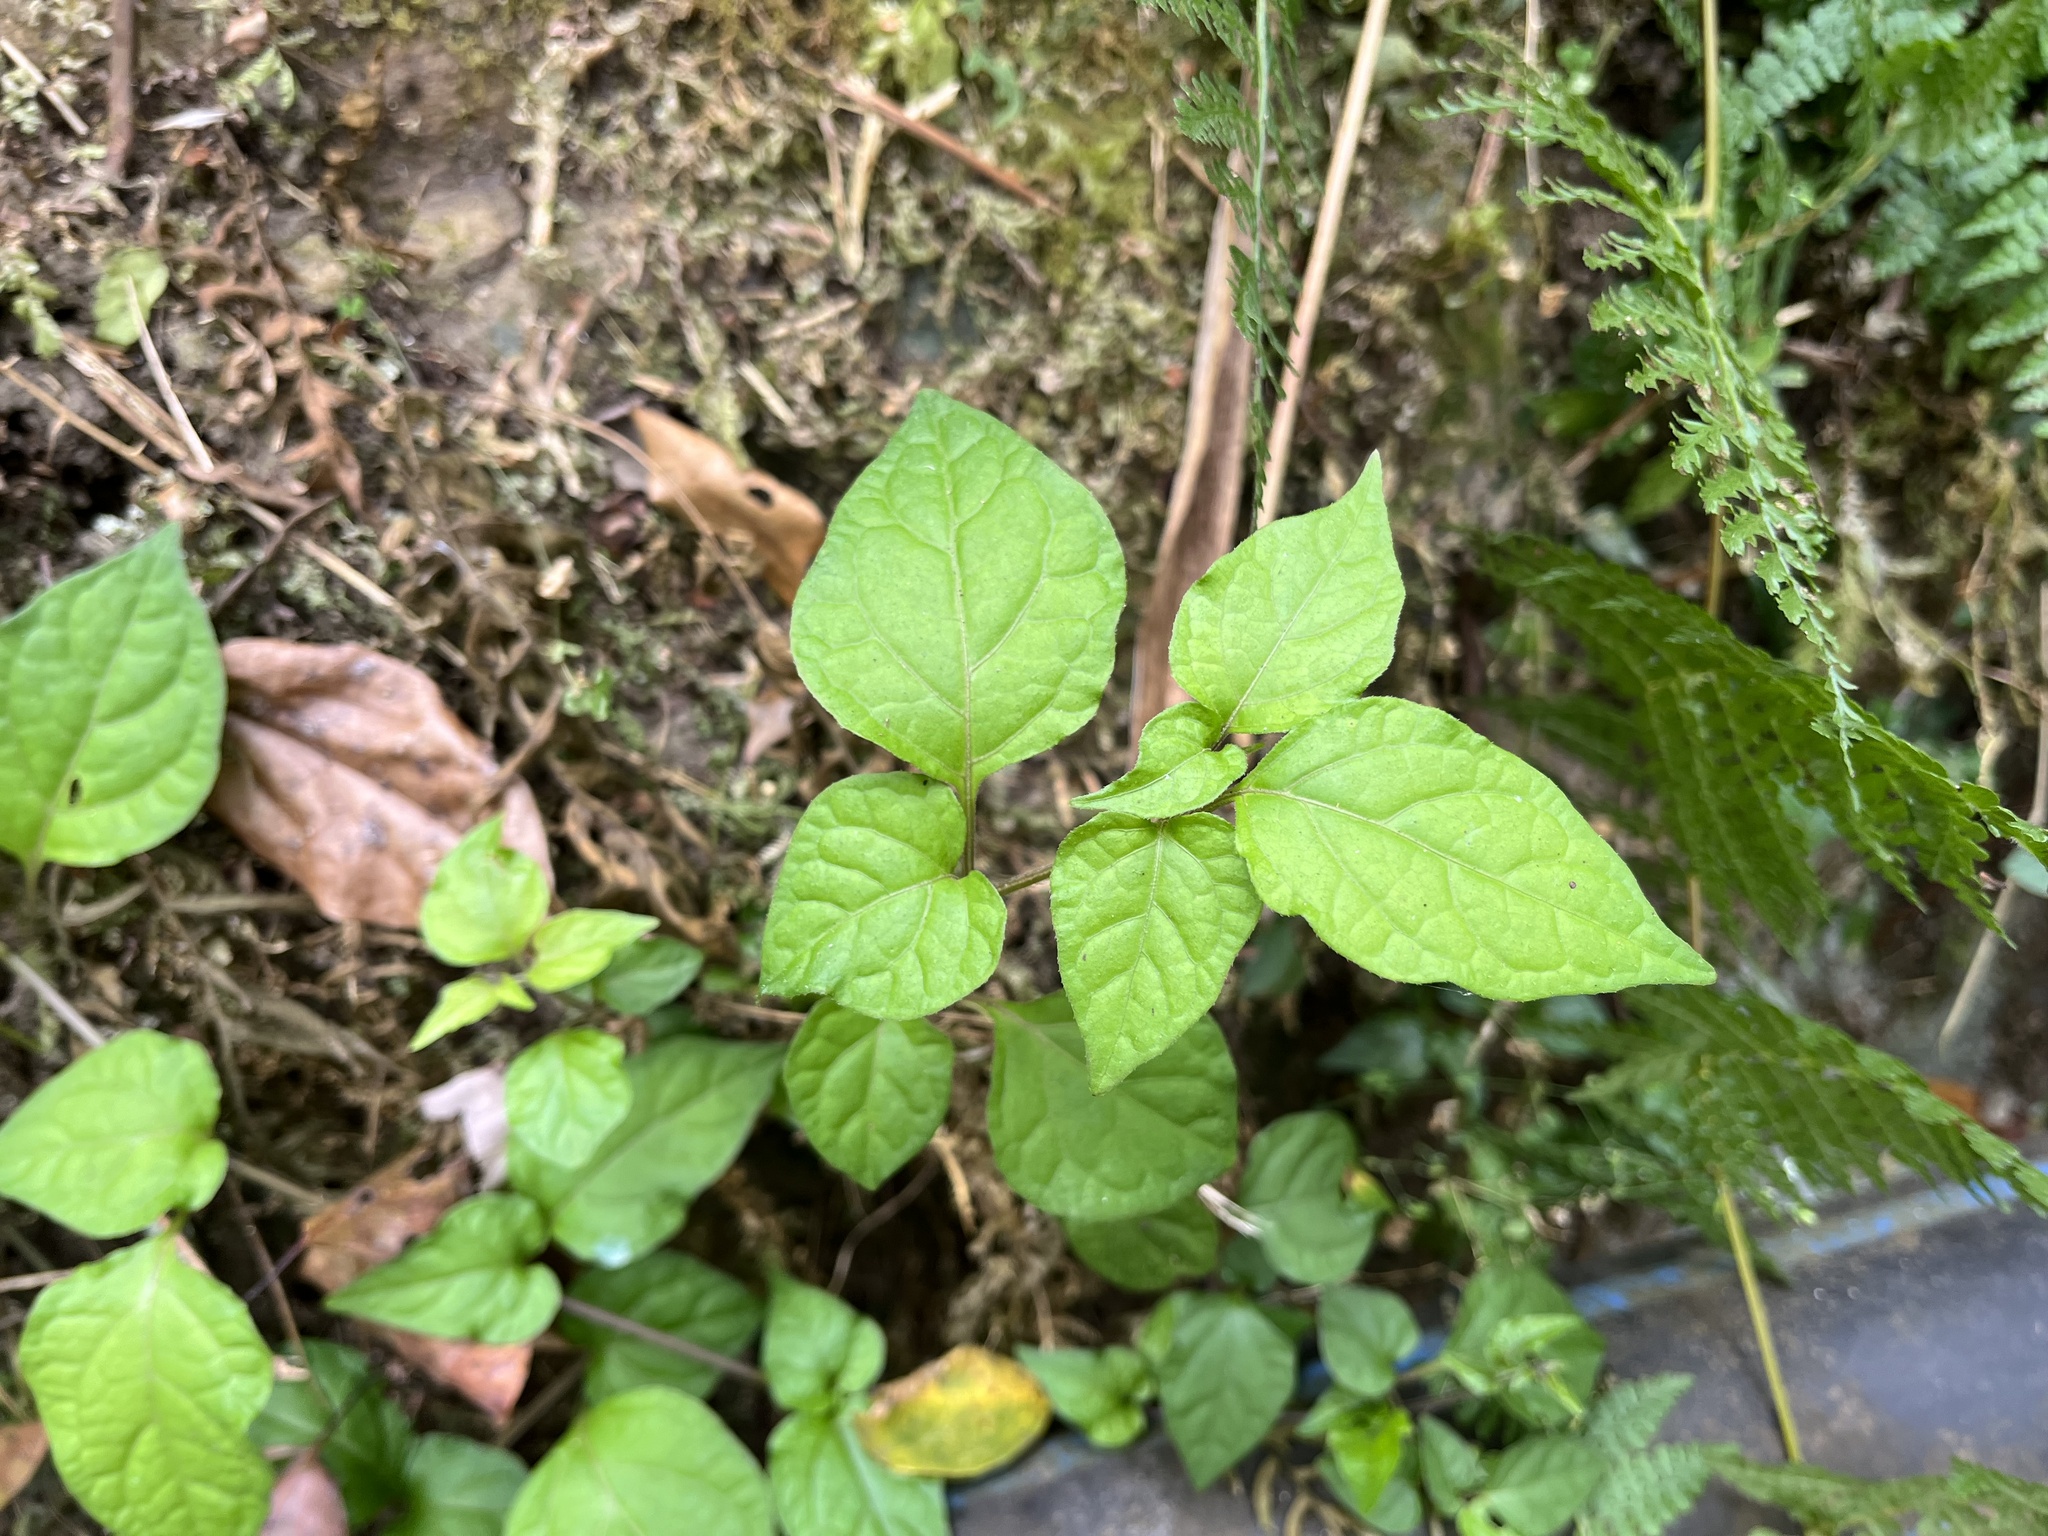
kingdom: Plantae
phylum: Tracheophyta
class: Magnoliopsida
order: Solanales
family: Solanaceae
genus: Lycianthes
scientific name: Lycianthes lysimachioides
